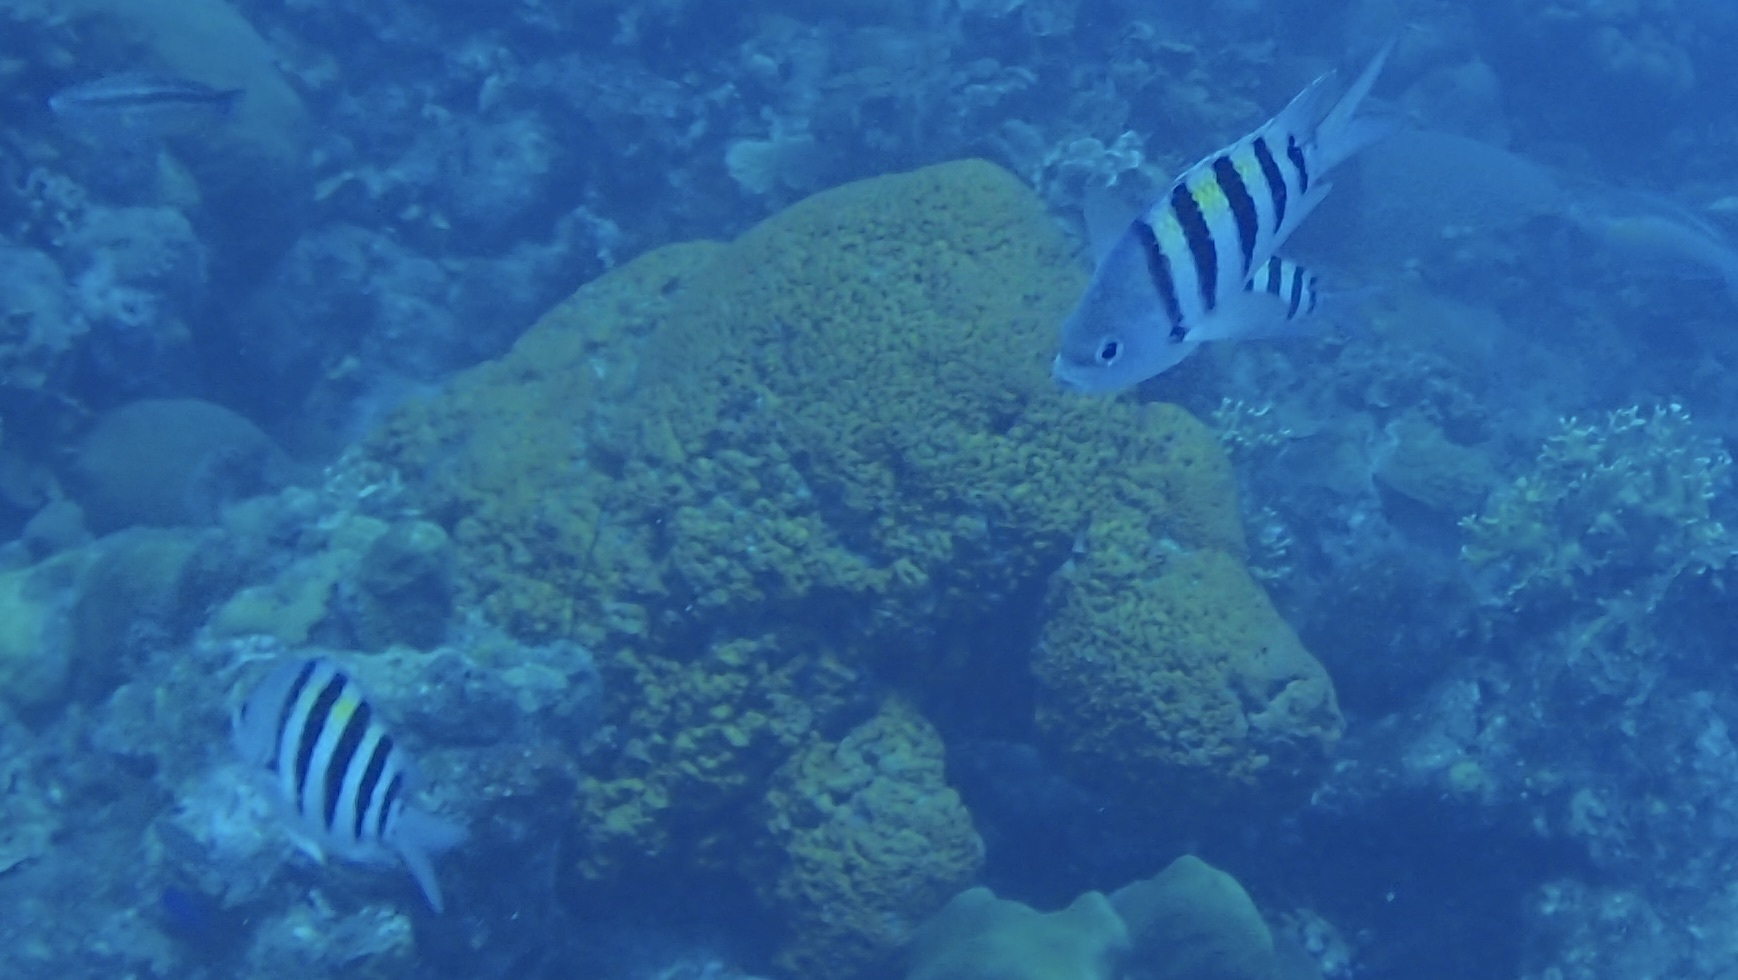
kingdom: Animalia
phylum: Chordata
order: Perciformes
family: Pomacentridae
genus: Abudefduf
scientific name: Abudefduf saxatilis
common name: Sergeant major
